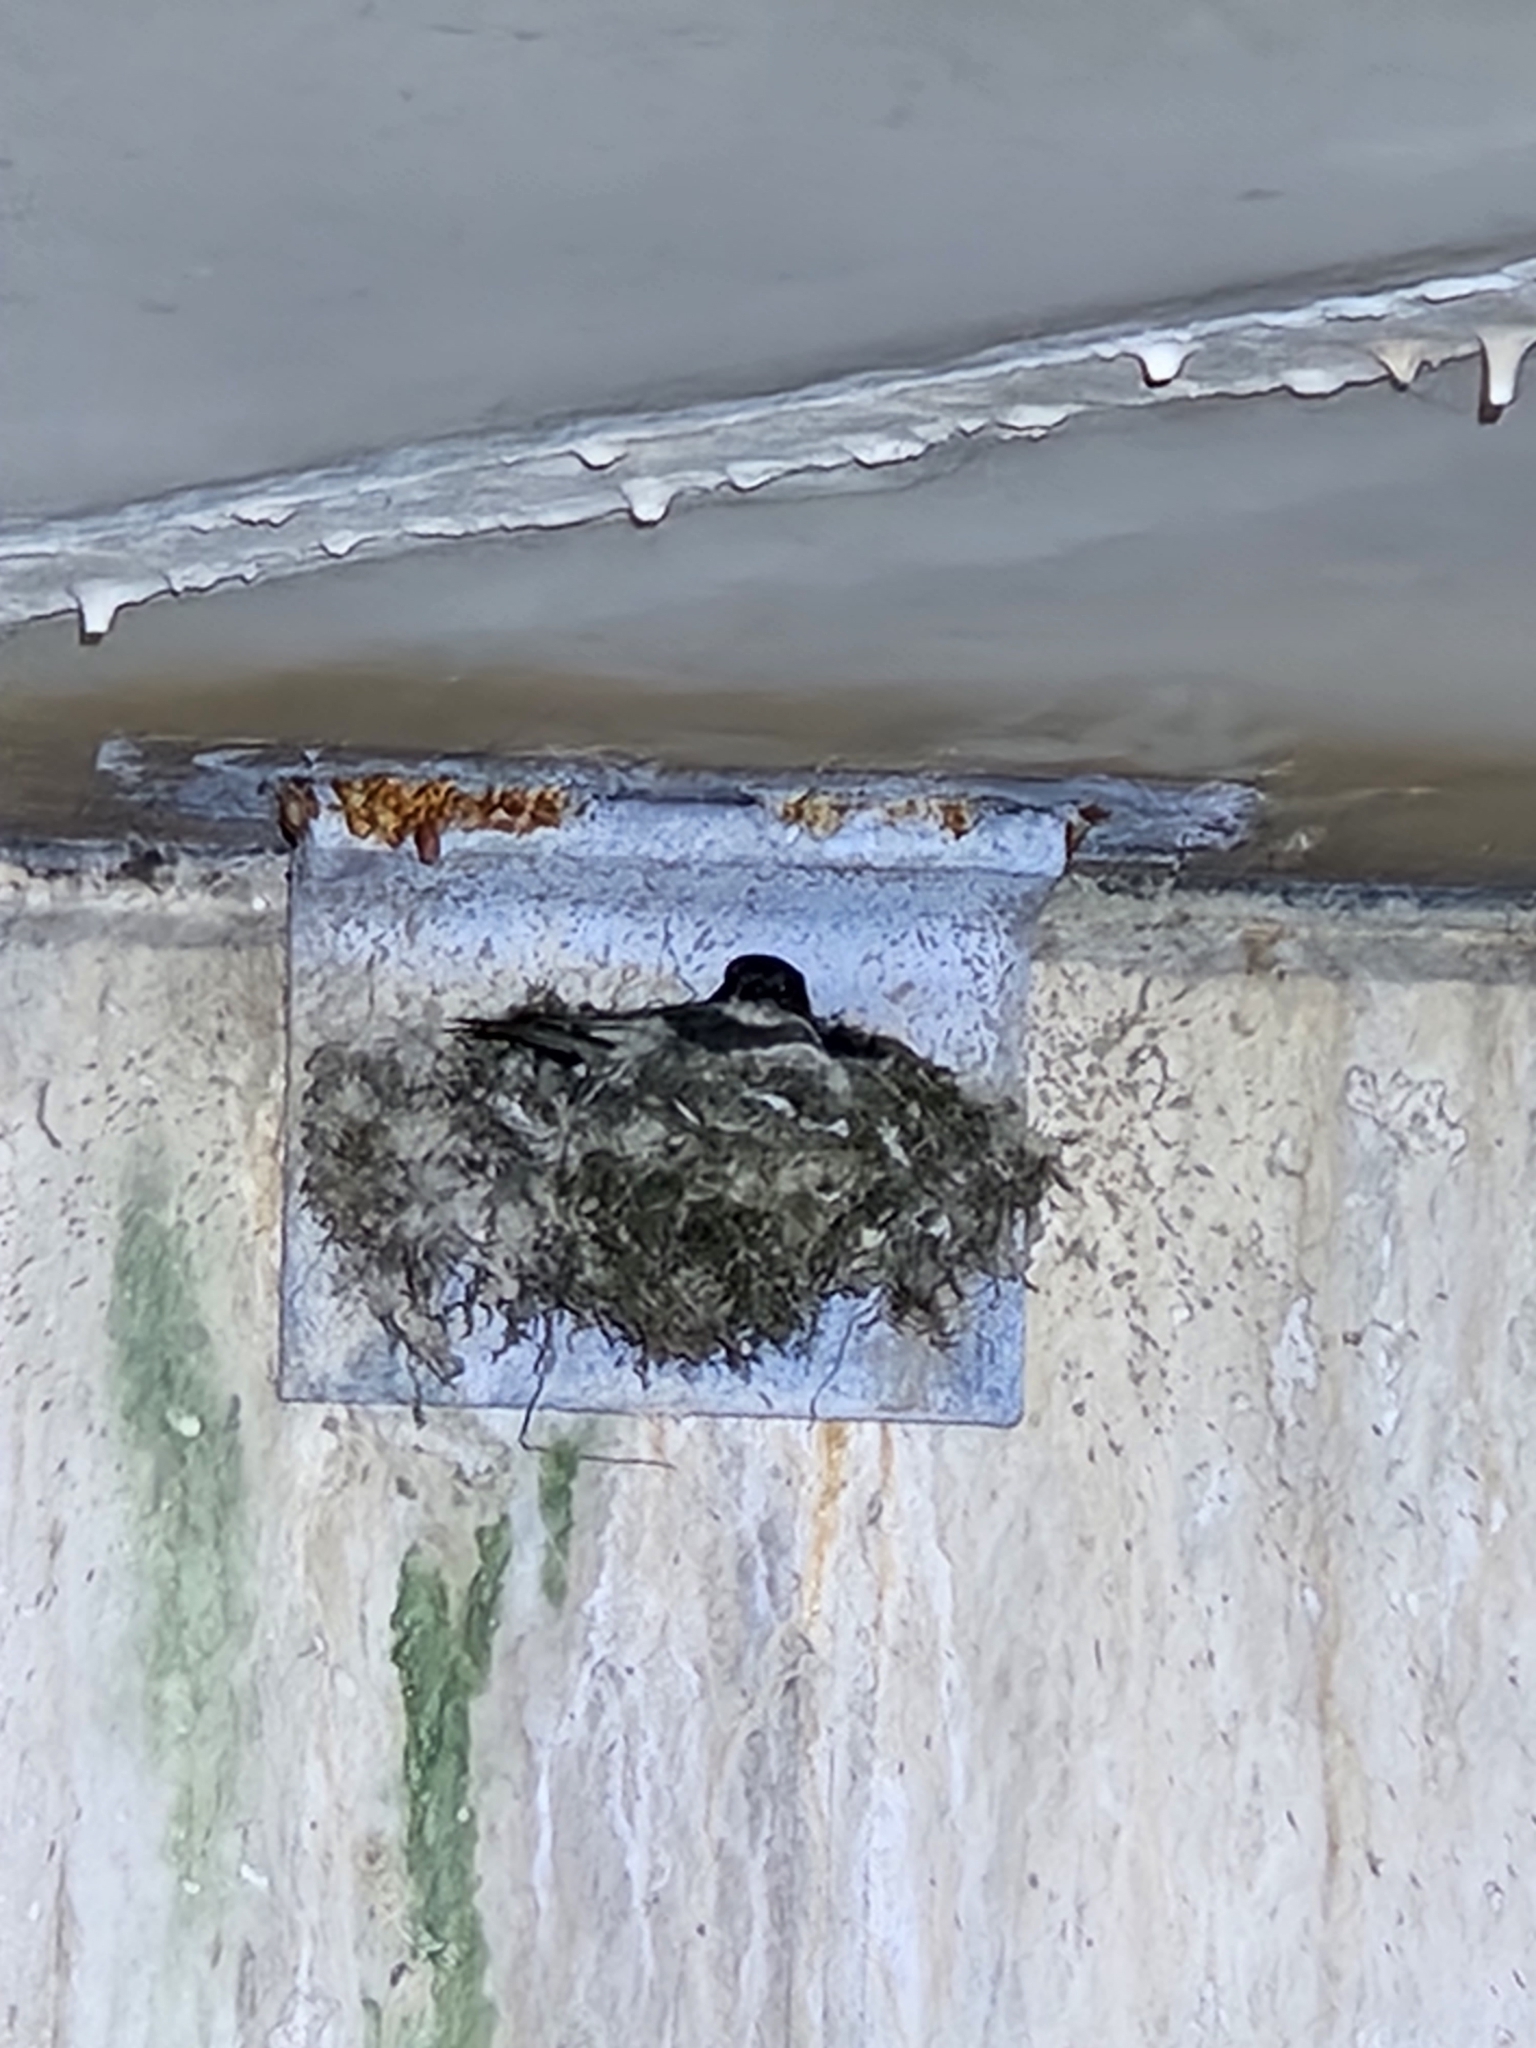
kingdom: Animalia
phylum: Chordata
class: Aves
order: Passeriformes
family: Tyrannidae
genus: Sayornis
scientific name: Sayornis phoebe
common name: Eastern phoebe
